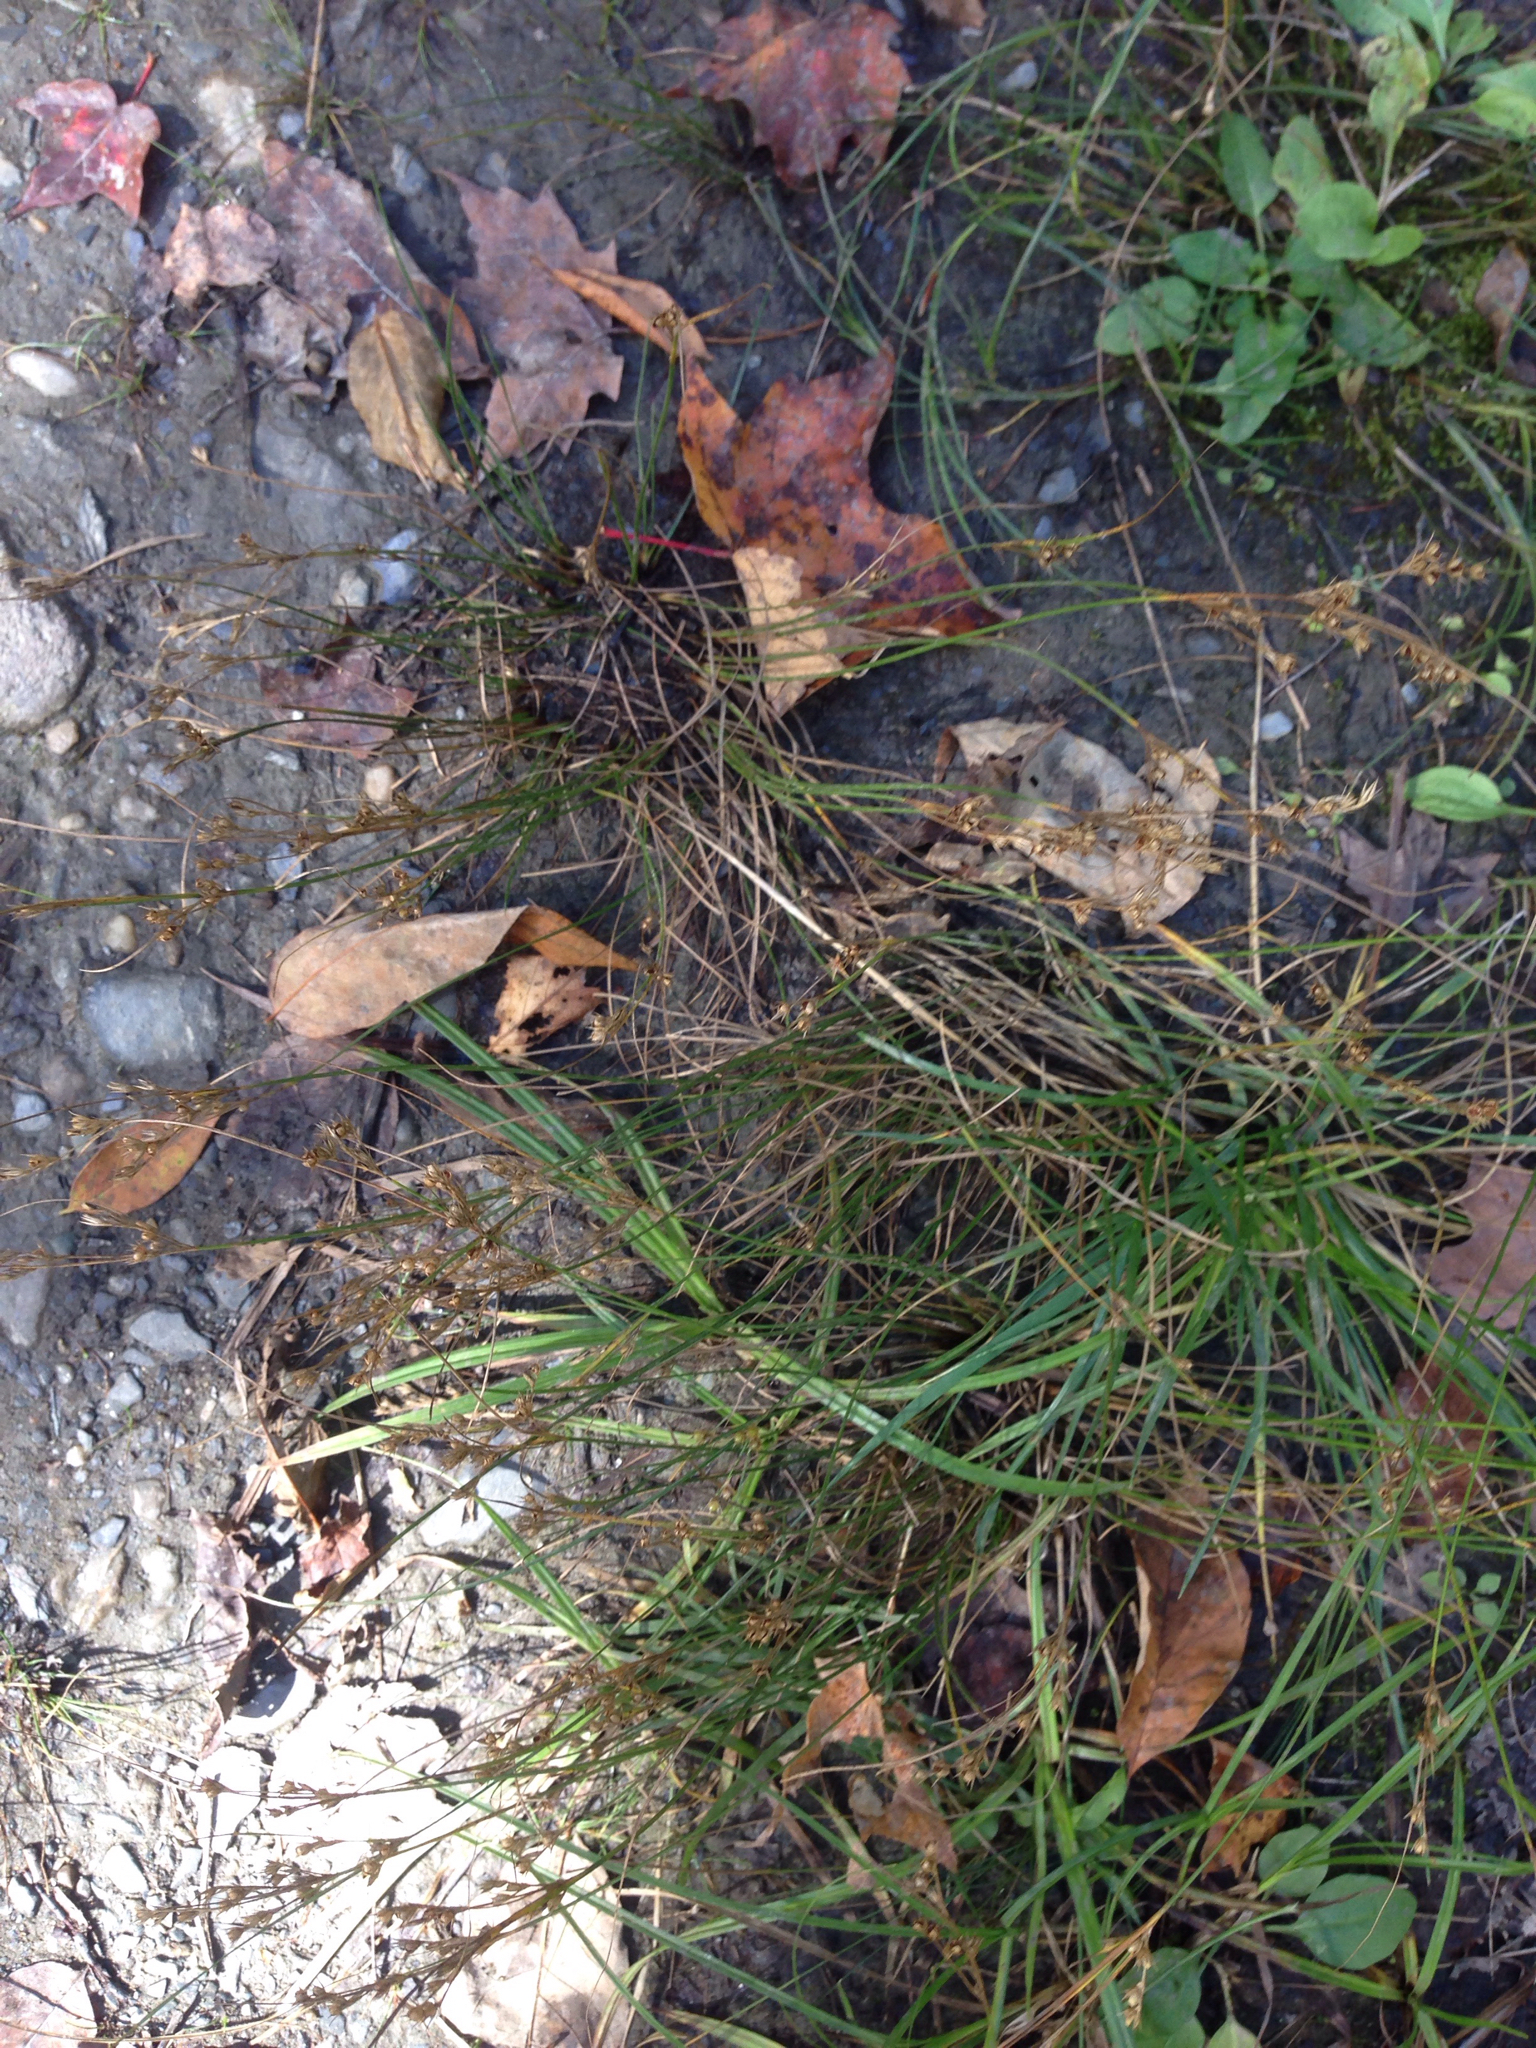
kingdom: Plantae
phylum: Tracheophyta
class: Liliopsida
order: Poales
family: Juncaceae
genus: Juncus
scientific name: Juncus tenuis
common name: Slender rush
